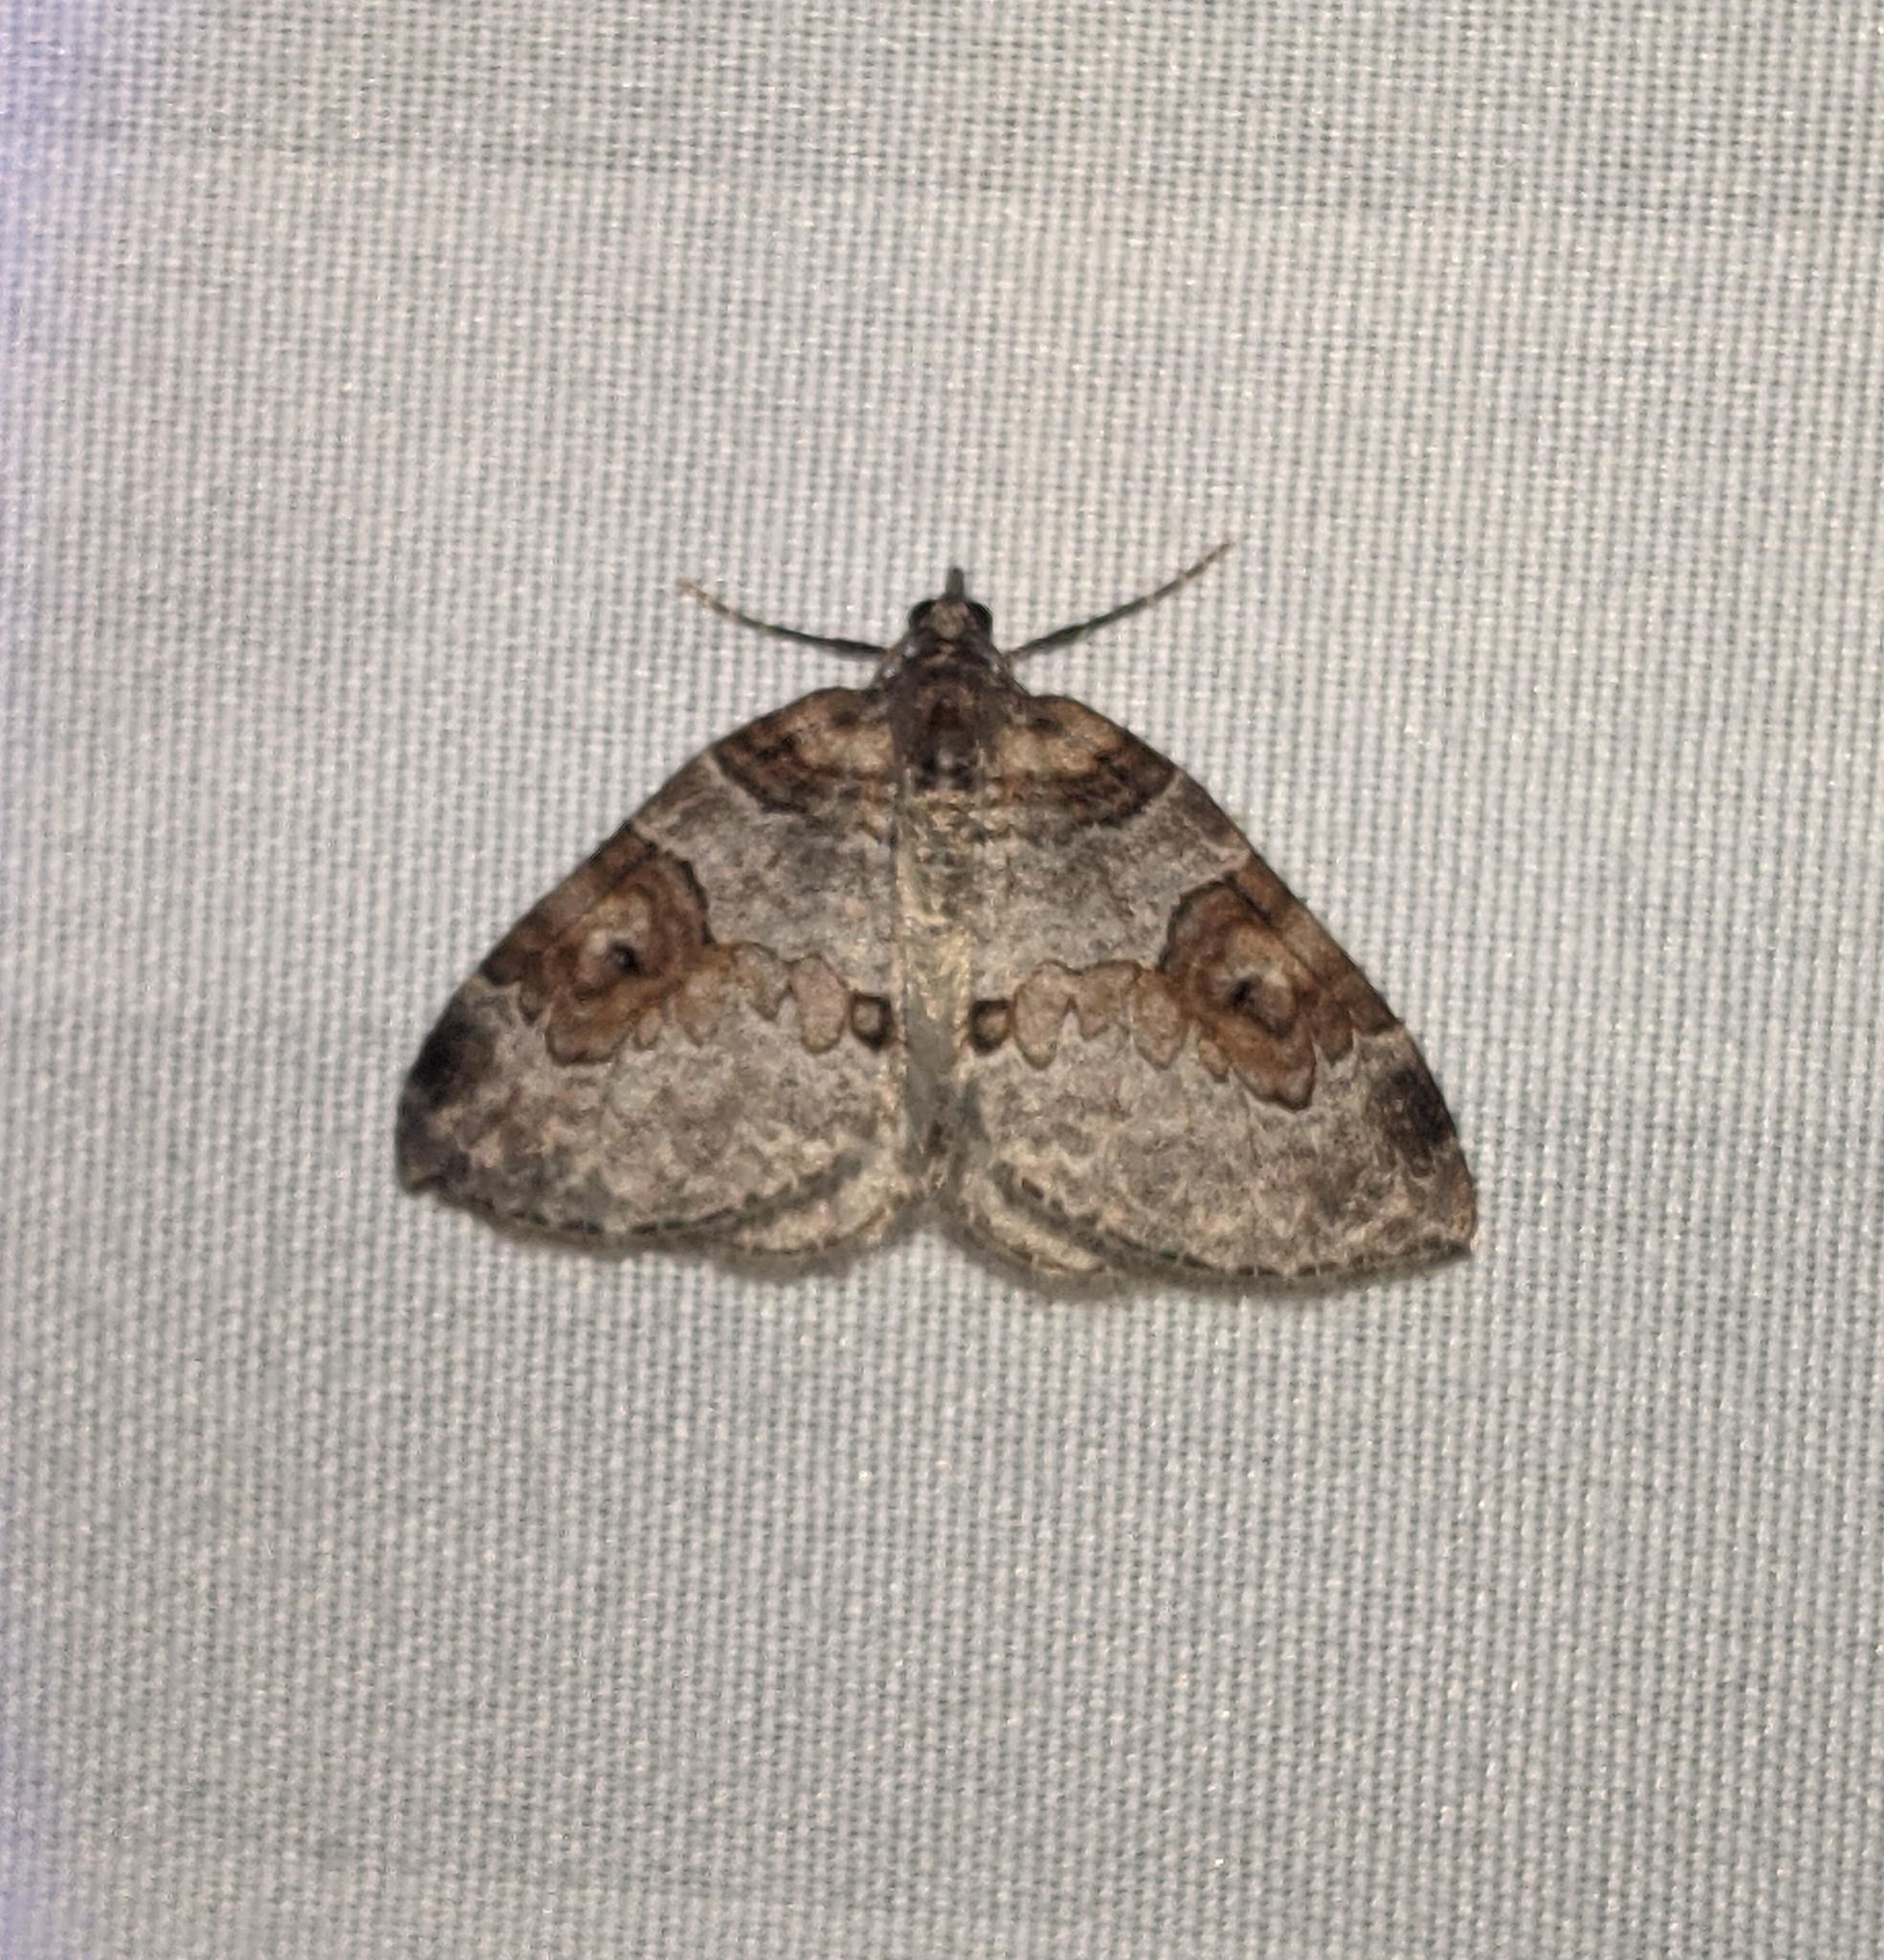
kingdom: Animalia
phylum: Arthropoda
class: Insecta
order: Lepidoptera
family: Geometridae
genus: Plemyria
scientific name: Plemyria georgii
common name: George's carpet moth
